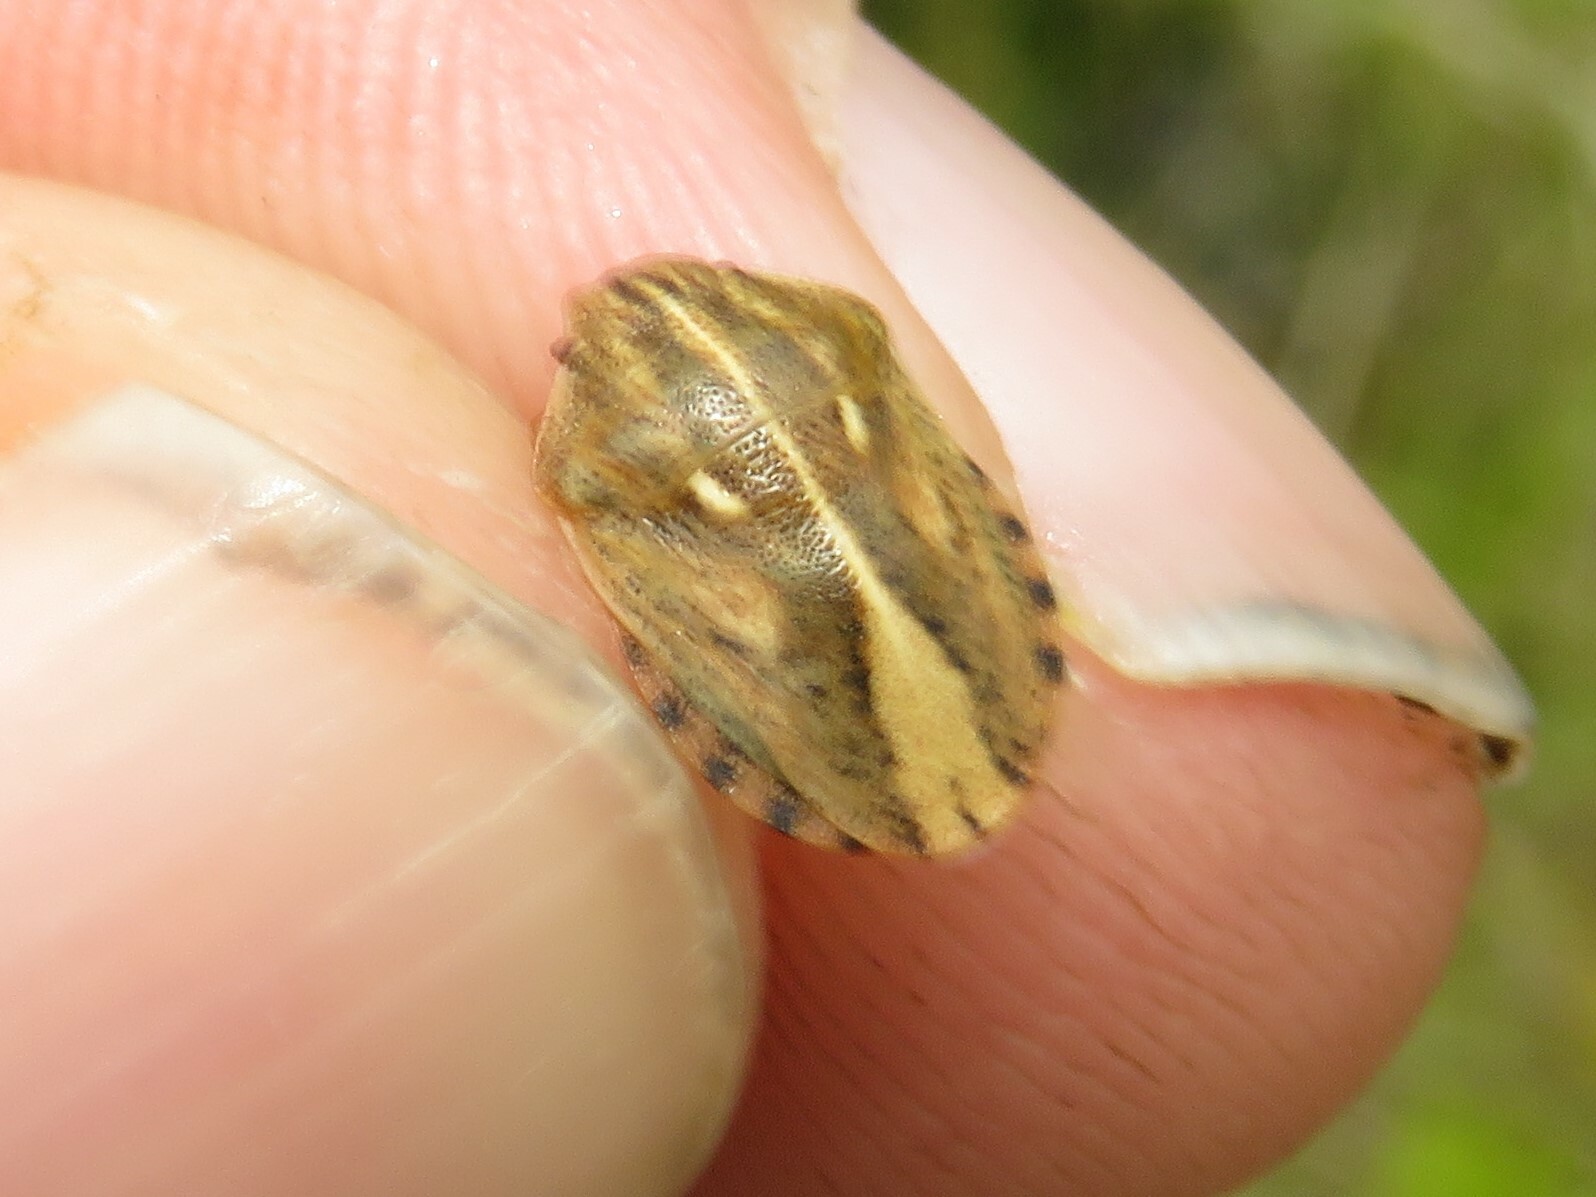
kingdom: Animalia
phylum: Arthropoda
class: Insecta
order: Hemiptera
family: Scutelleridae
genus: Eurygaster
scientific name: Eurygaster alternata
